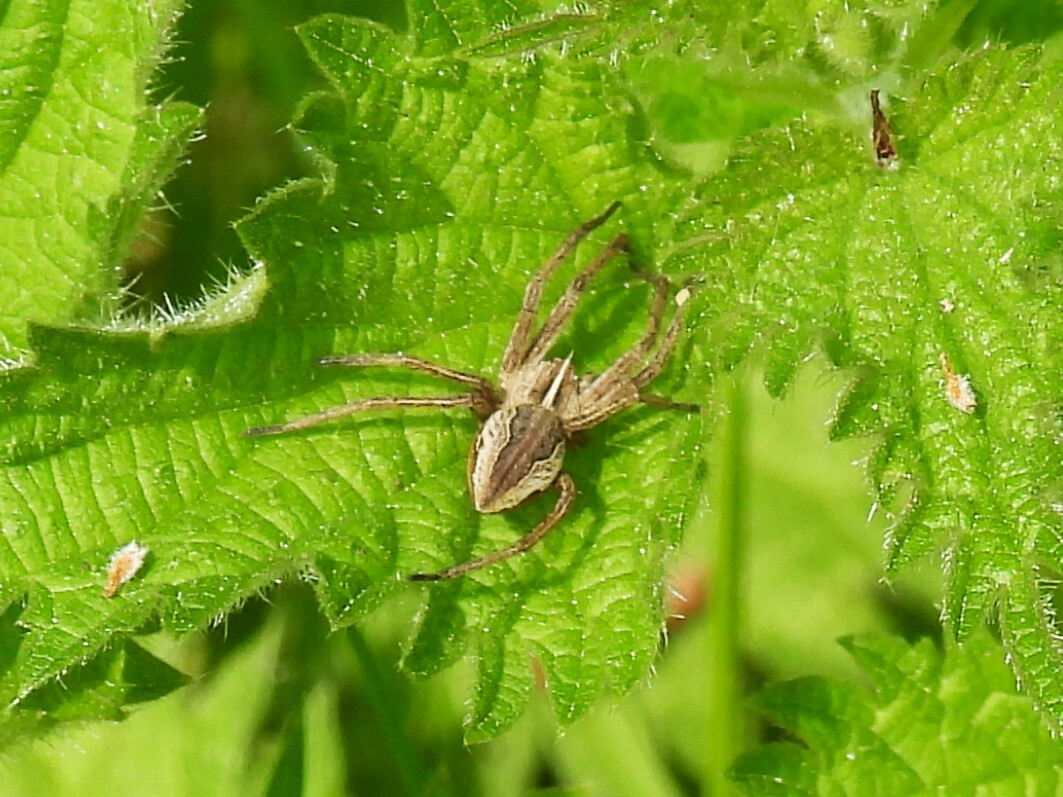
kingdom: Animalia
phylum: Arthropoda
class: Arachnida
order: Araneae
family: Pisauridae
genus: Pisaura
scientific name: Pisaura mirabilis
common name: Tent spider
